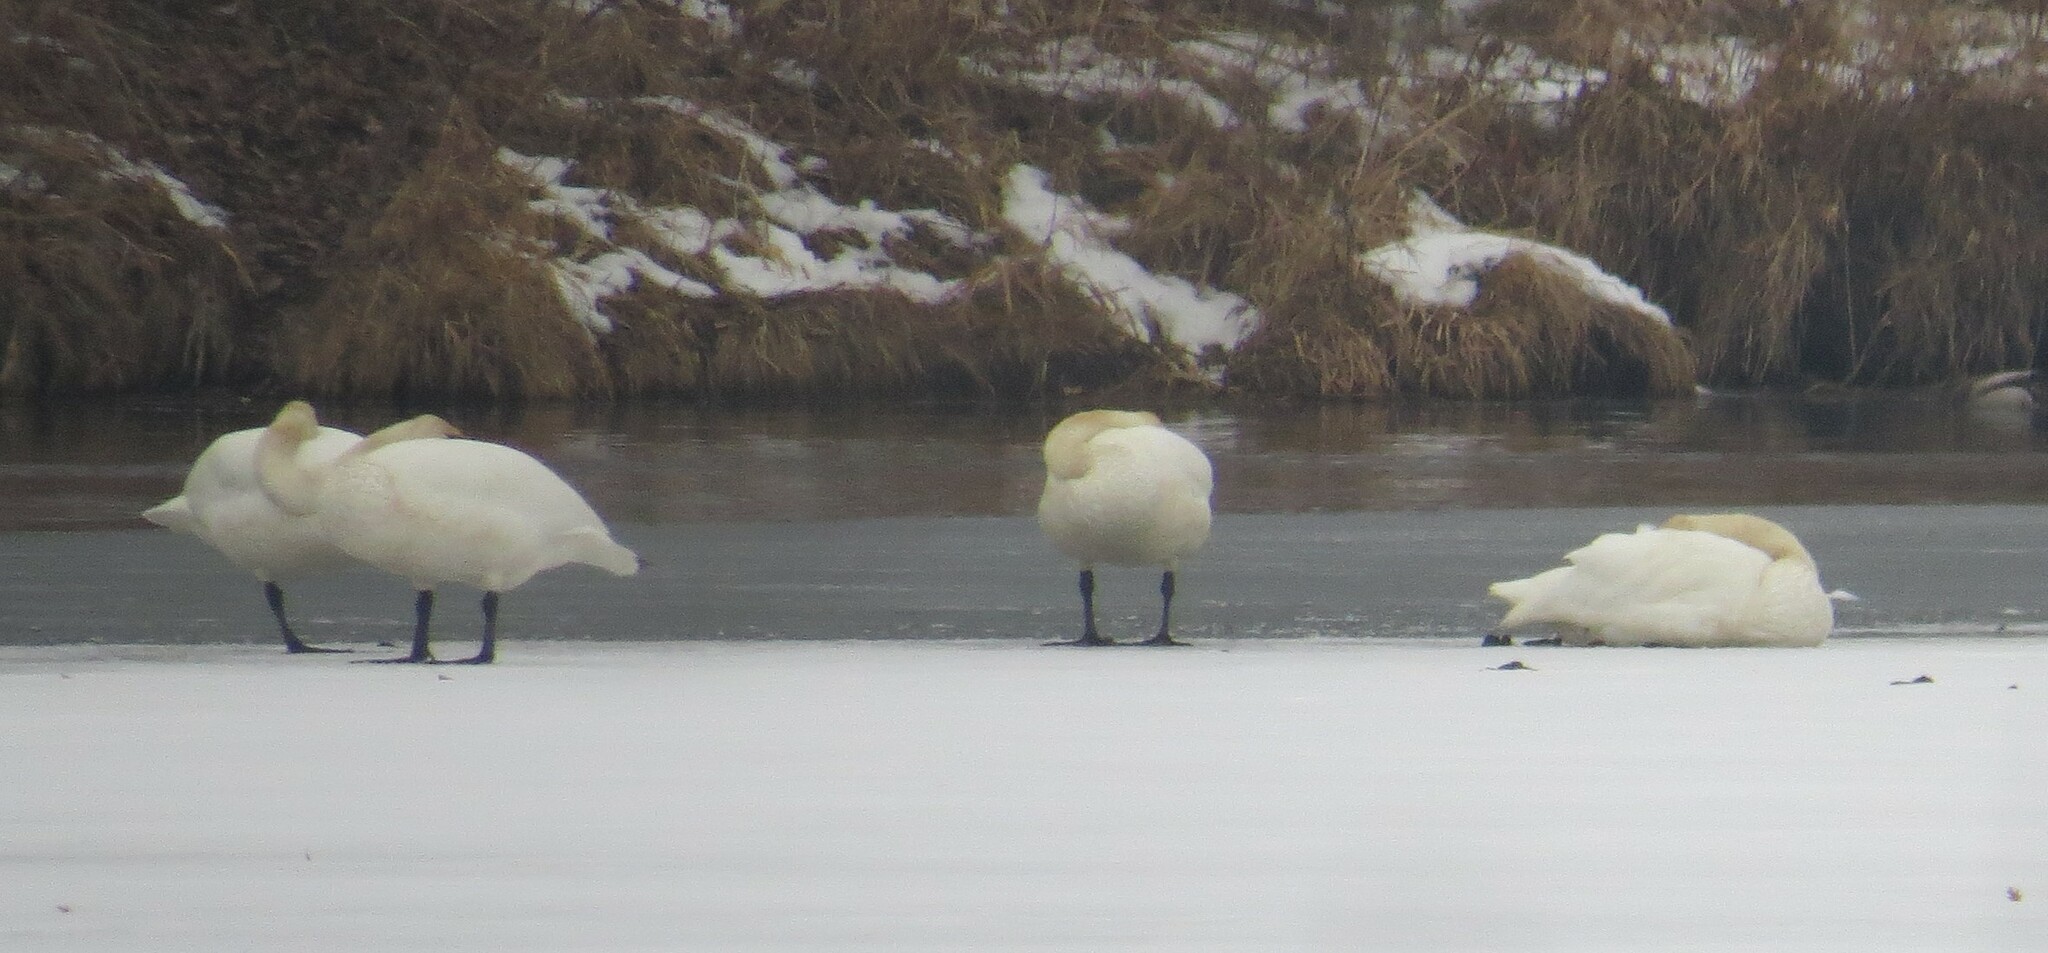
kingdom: Animalia
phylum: Chordata
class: Aves
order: Anseriformes
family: Anatidae
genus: Cygnus
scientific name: Cygnus buccinator
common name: Trumpeter swan
